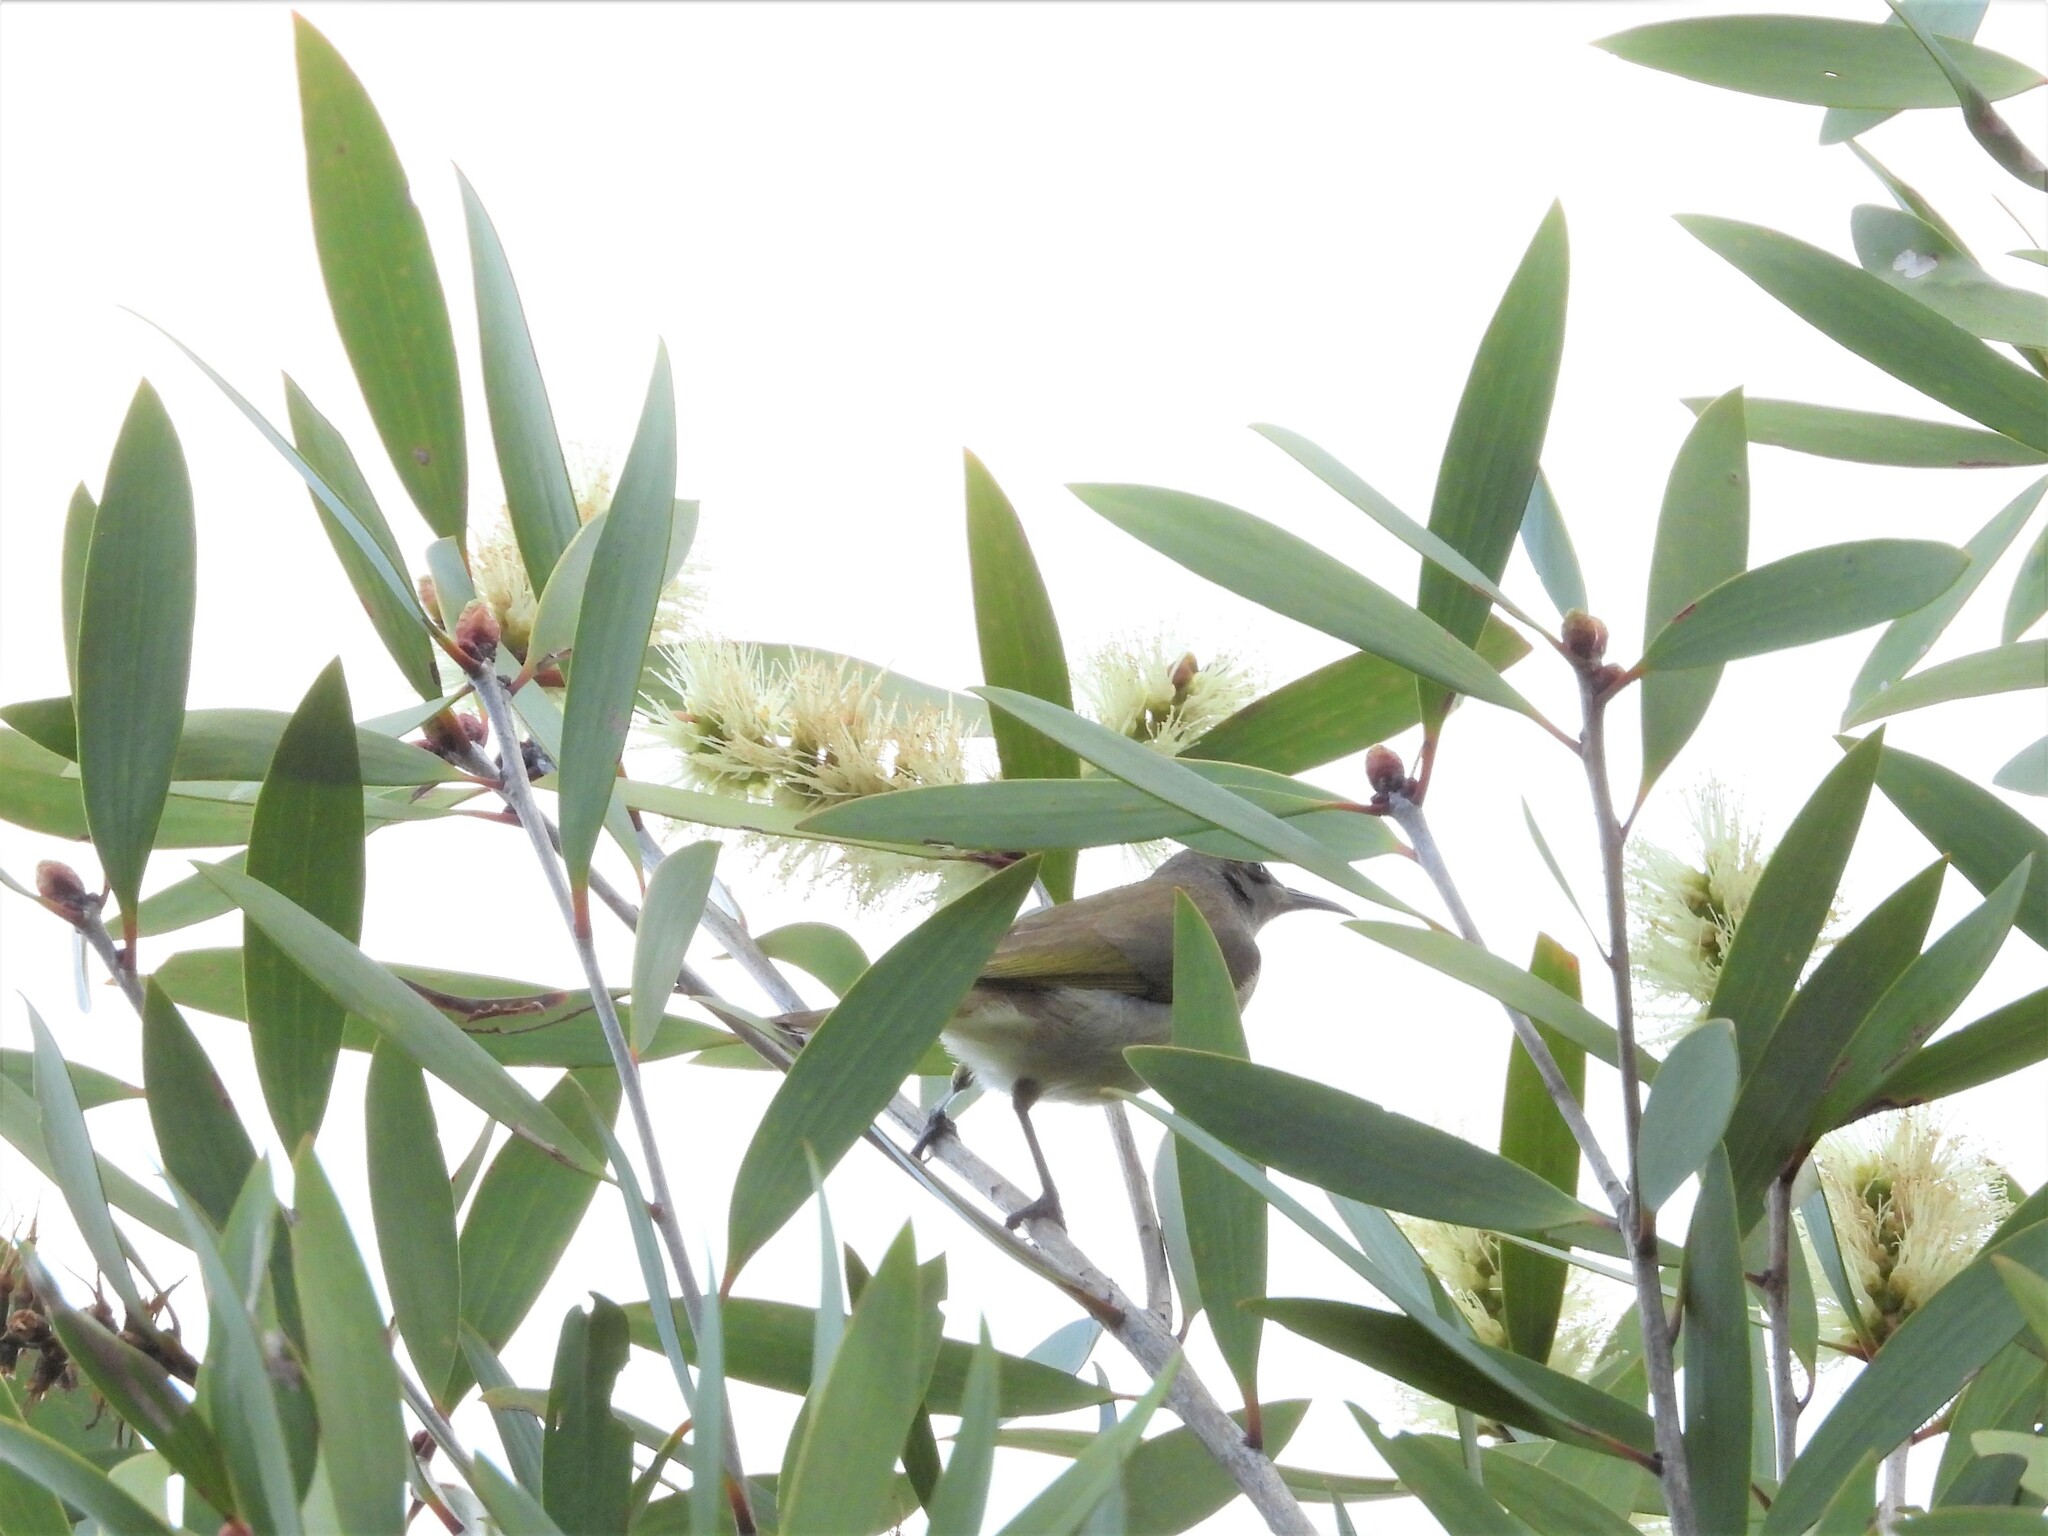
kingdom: Animalia
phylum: Chordata
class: Aves
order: Passeriformes
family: Meliphagidae
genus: Lichmera
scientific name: Lichmera indistincta
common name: Brown honeyeater
